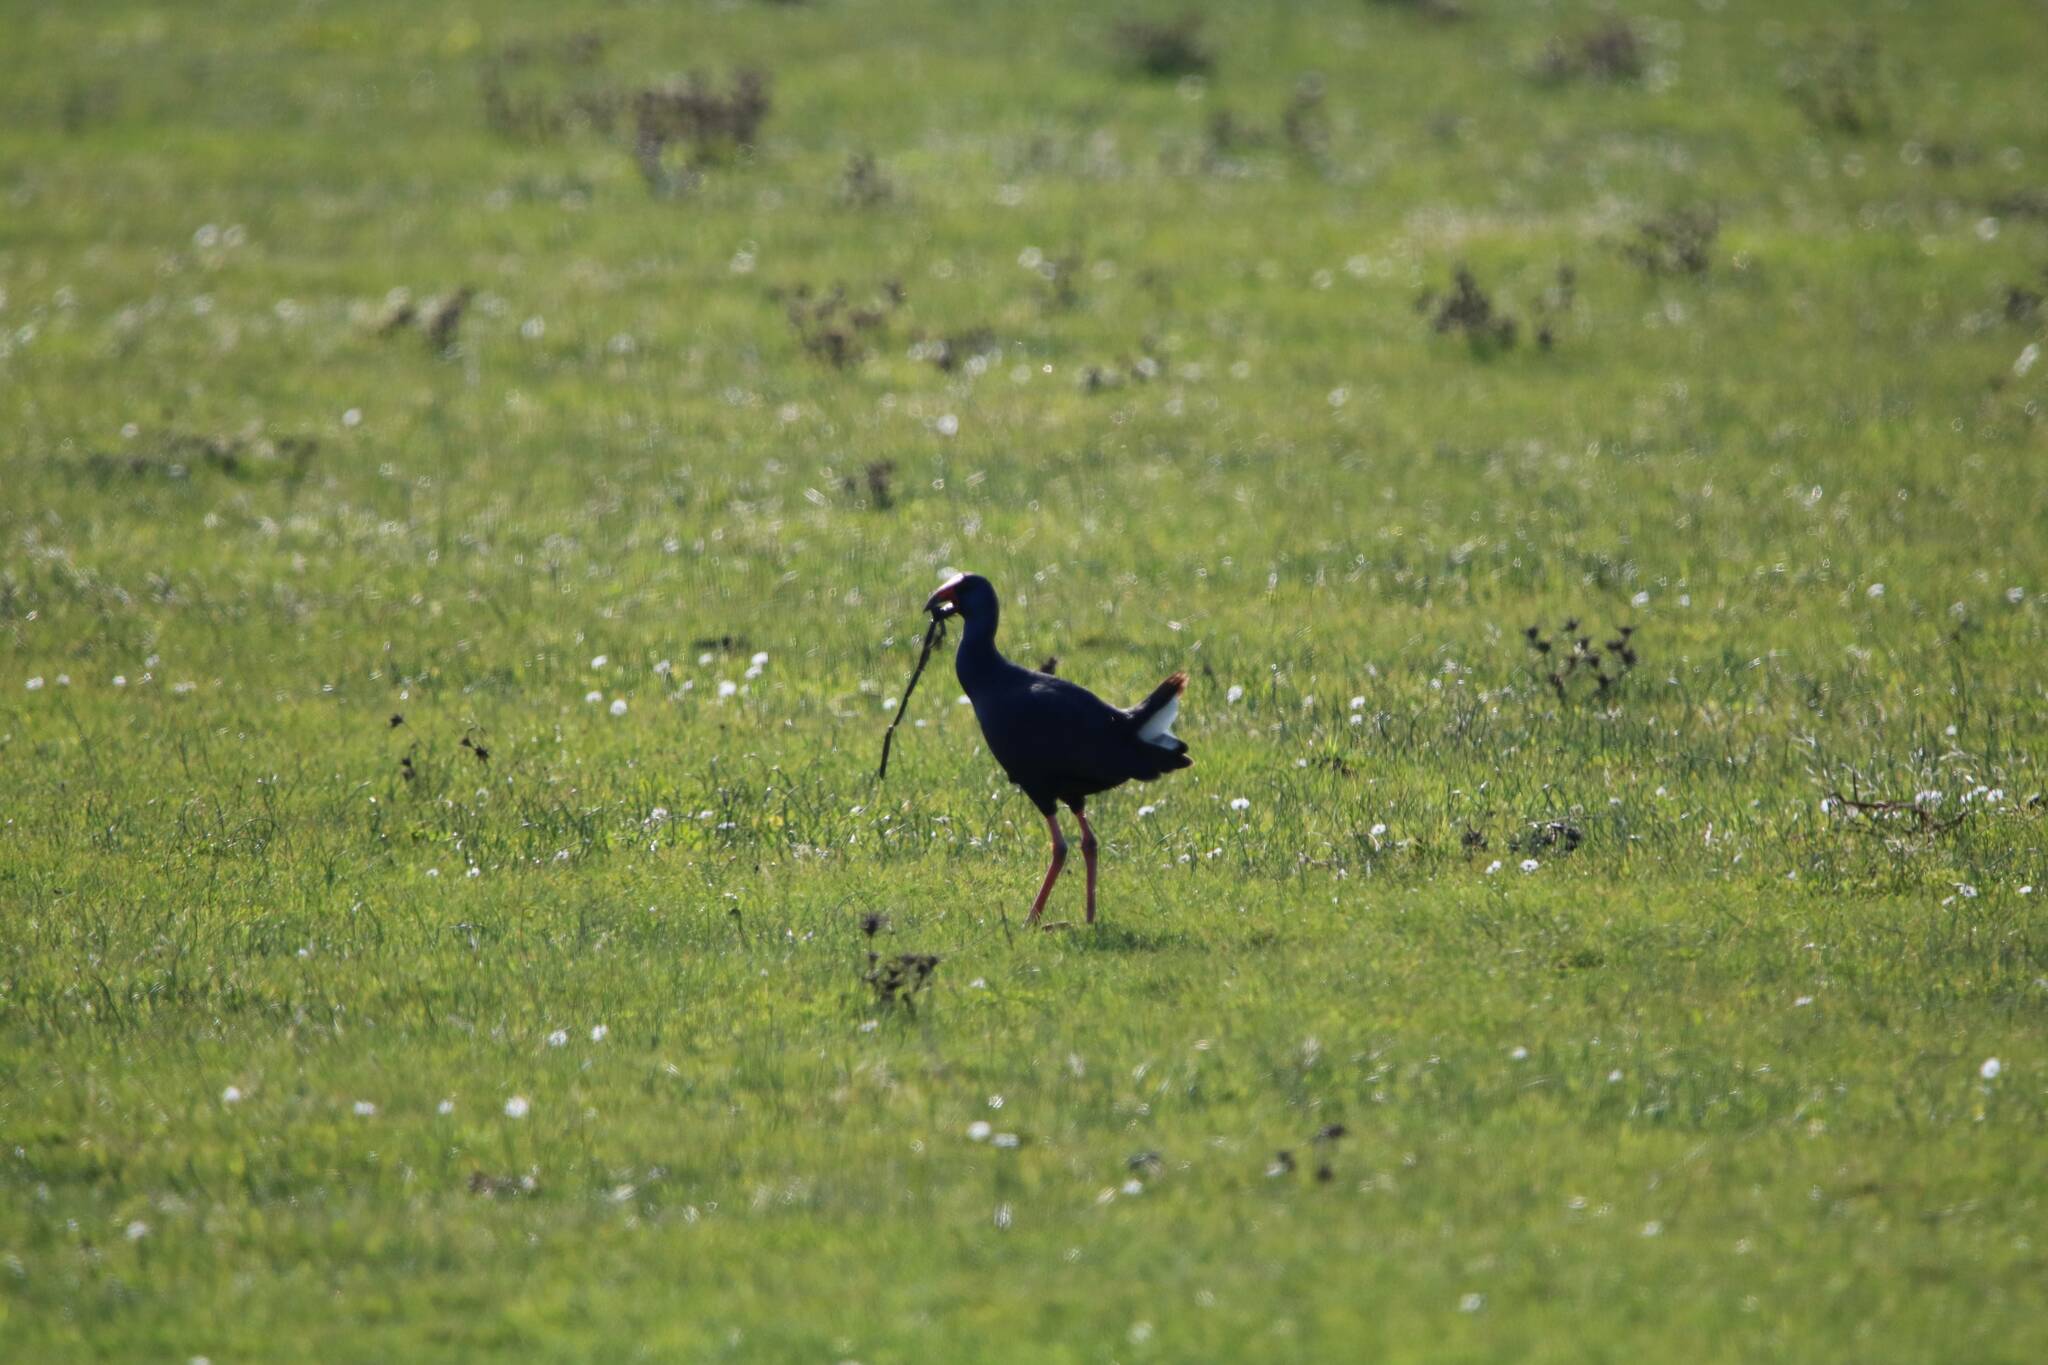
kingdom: Animalia
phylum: Chordata
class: Aves
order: Gruiformes
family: Rallidae
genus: Porphyrio
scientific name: Porphyrio porphyrio
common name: Purple swamphen
